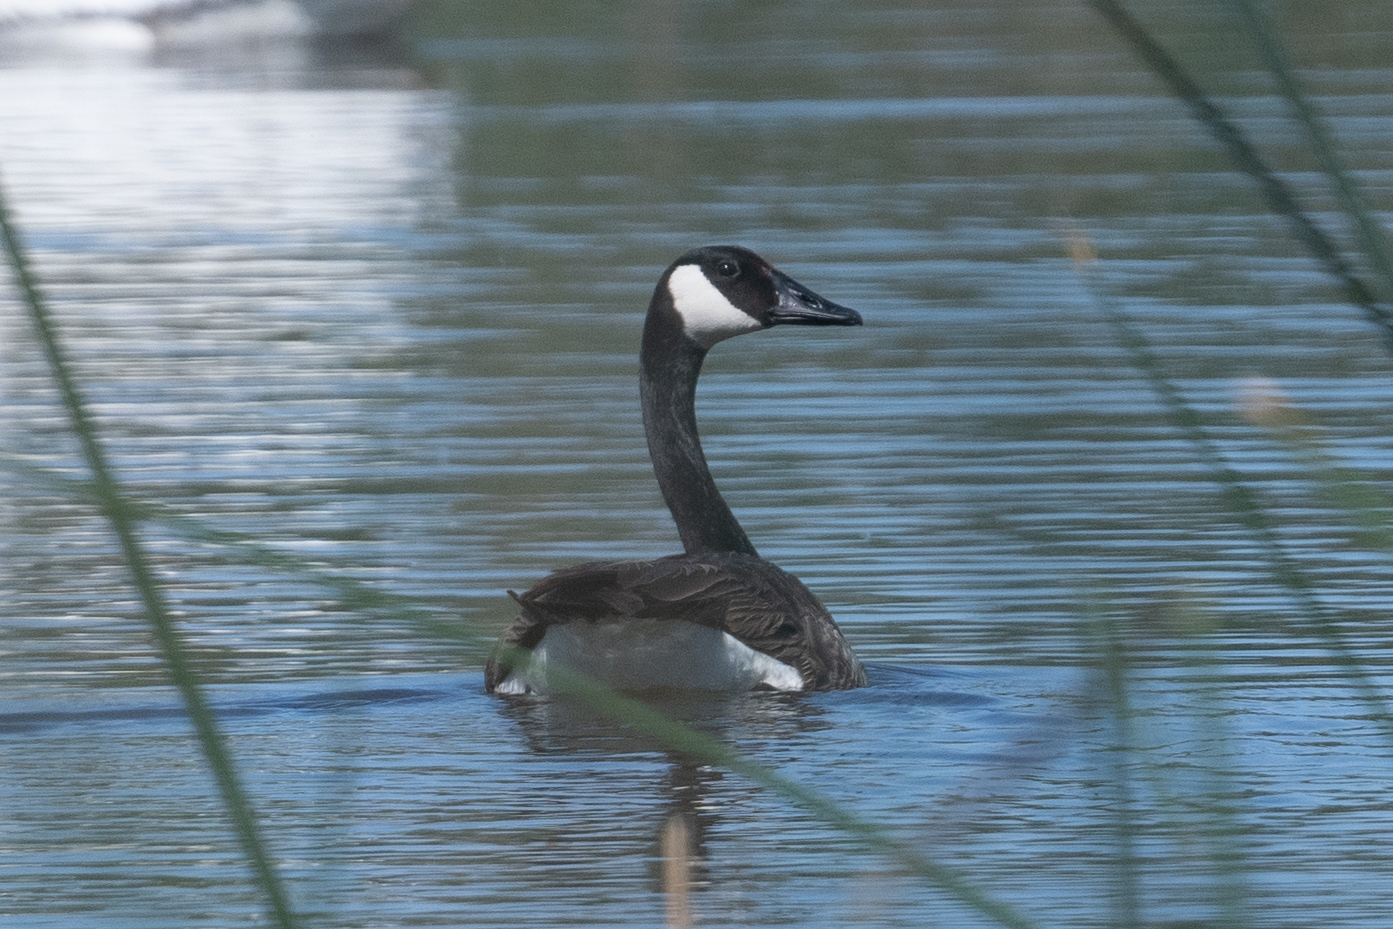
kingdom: Animalia
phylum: Chordata
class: Aves
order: Anseriformes
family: Anatidae
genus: Branta
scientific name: Branta canadensis
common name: Canada goose
